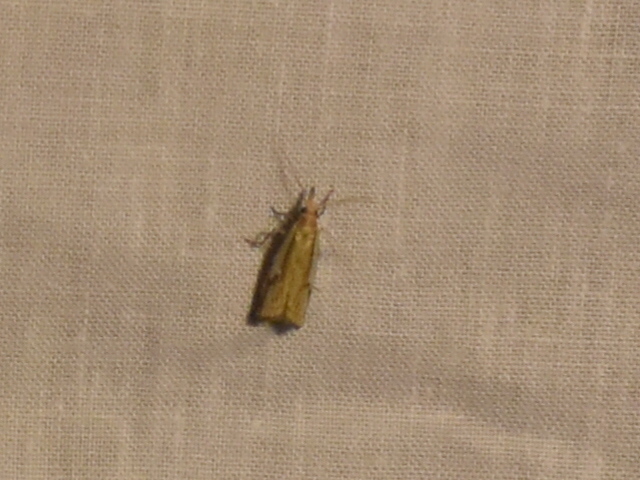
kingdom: Animalia
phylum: Arthropoda
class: Insecta
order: Lepidoptera
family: Crambidae
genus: Crambus
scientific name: Crambus agitatellus
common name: Double-banded grass-veneer
